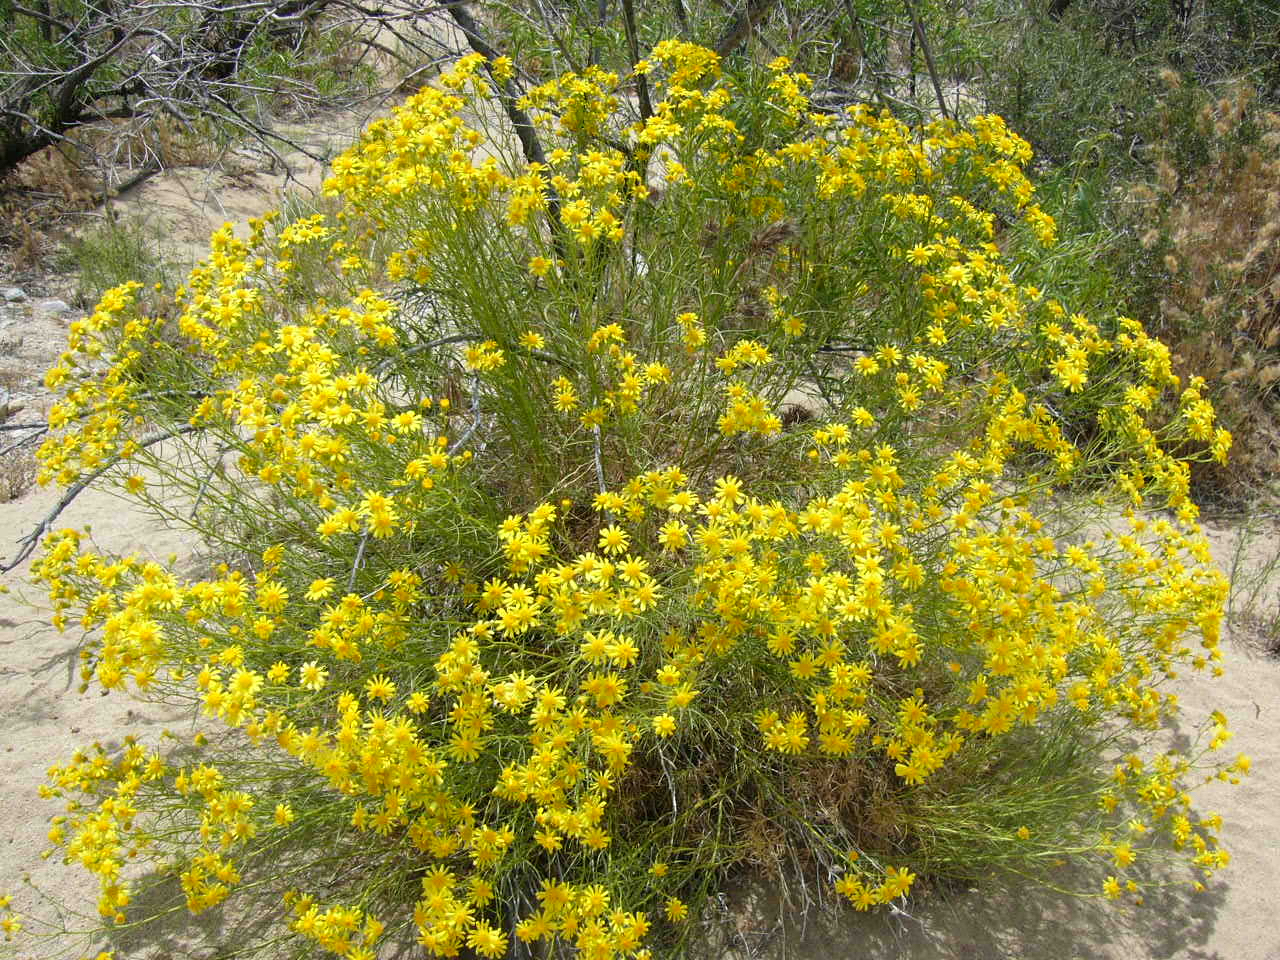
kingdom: Plantae
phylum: Tracheophyta
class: Magnoliopsida
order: Asterales
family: Asteraceae
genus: Senecio
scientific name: Senecio flaccidus
